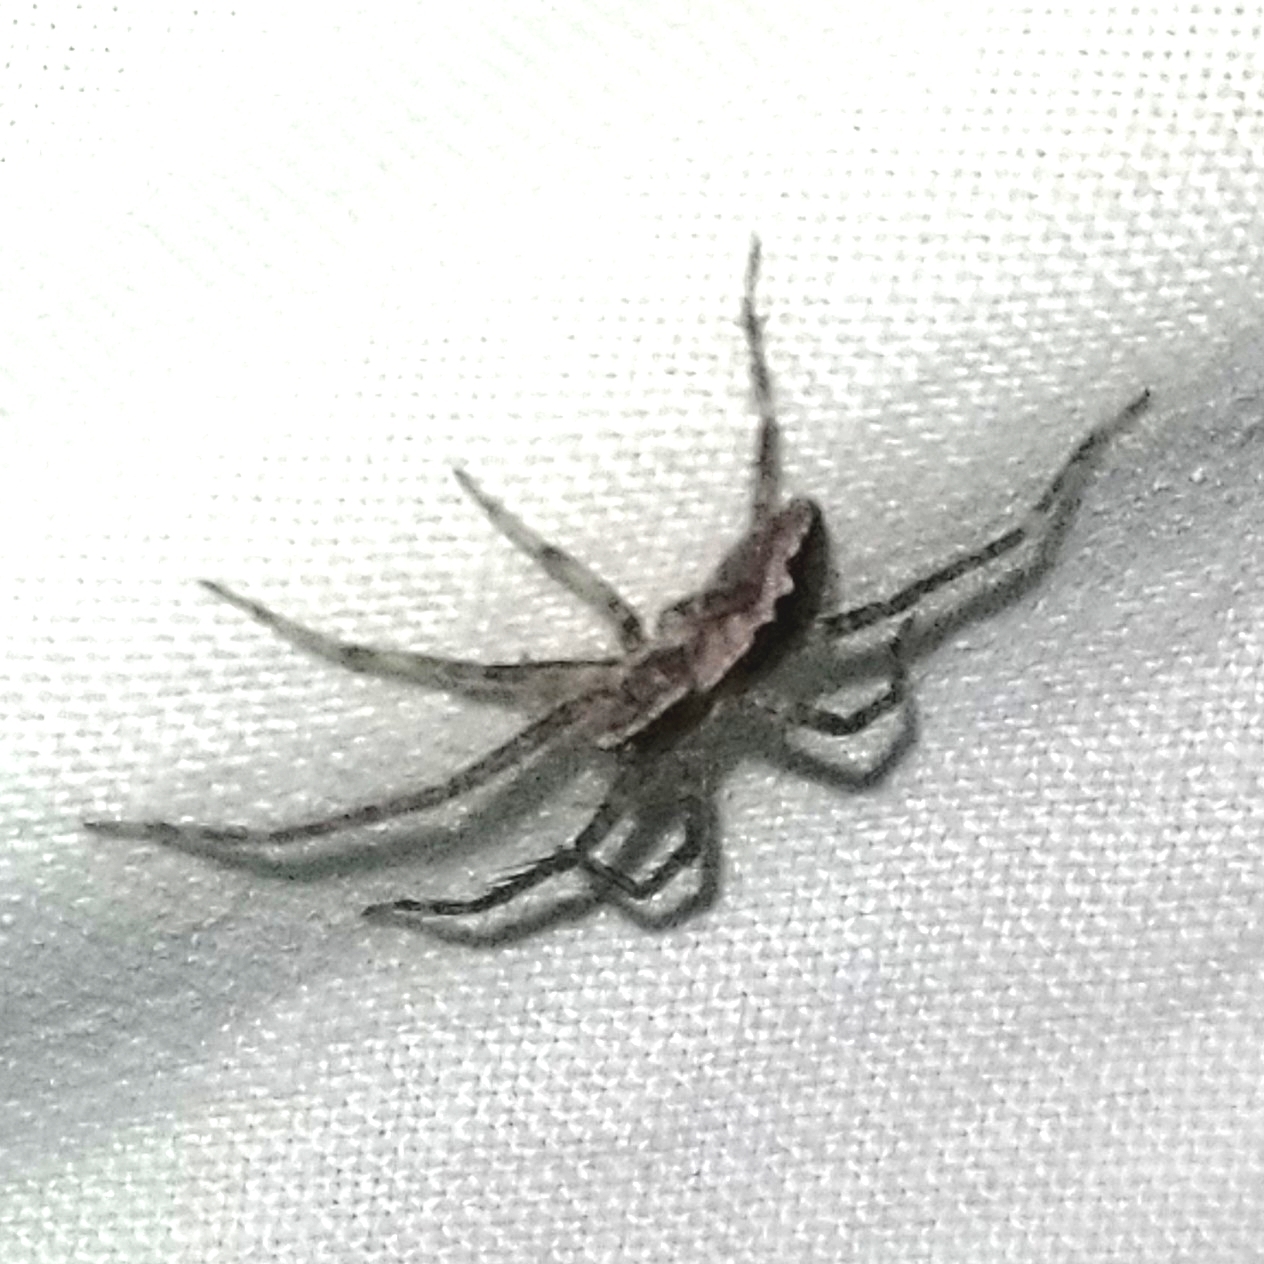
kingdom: Animalia
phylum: Arthropoda
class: Arachnida
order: Araneae
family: Pisauridae
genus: Pisaurina
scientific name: Pisaurina mira
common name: American nursery web spider
